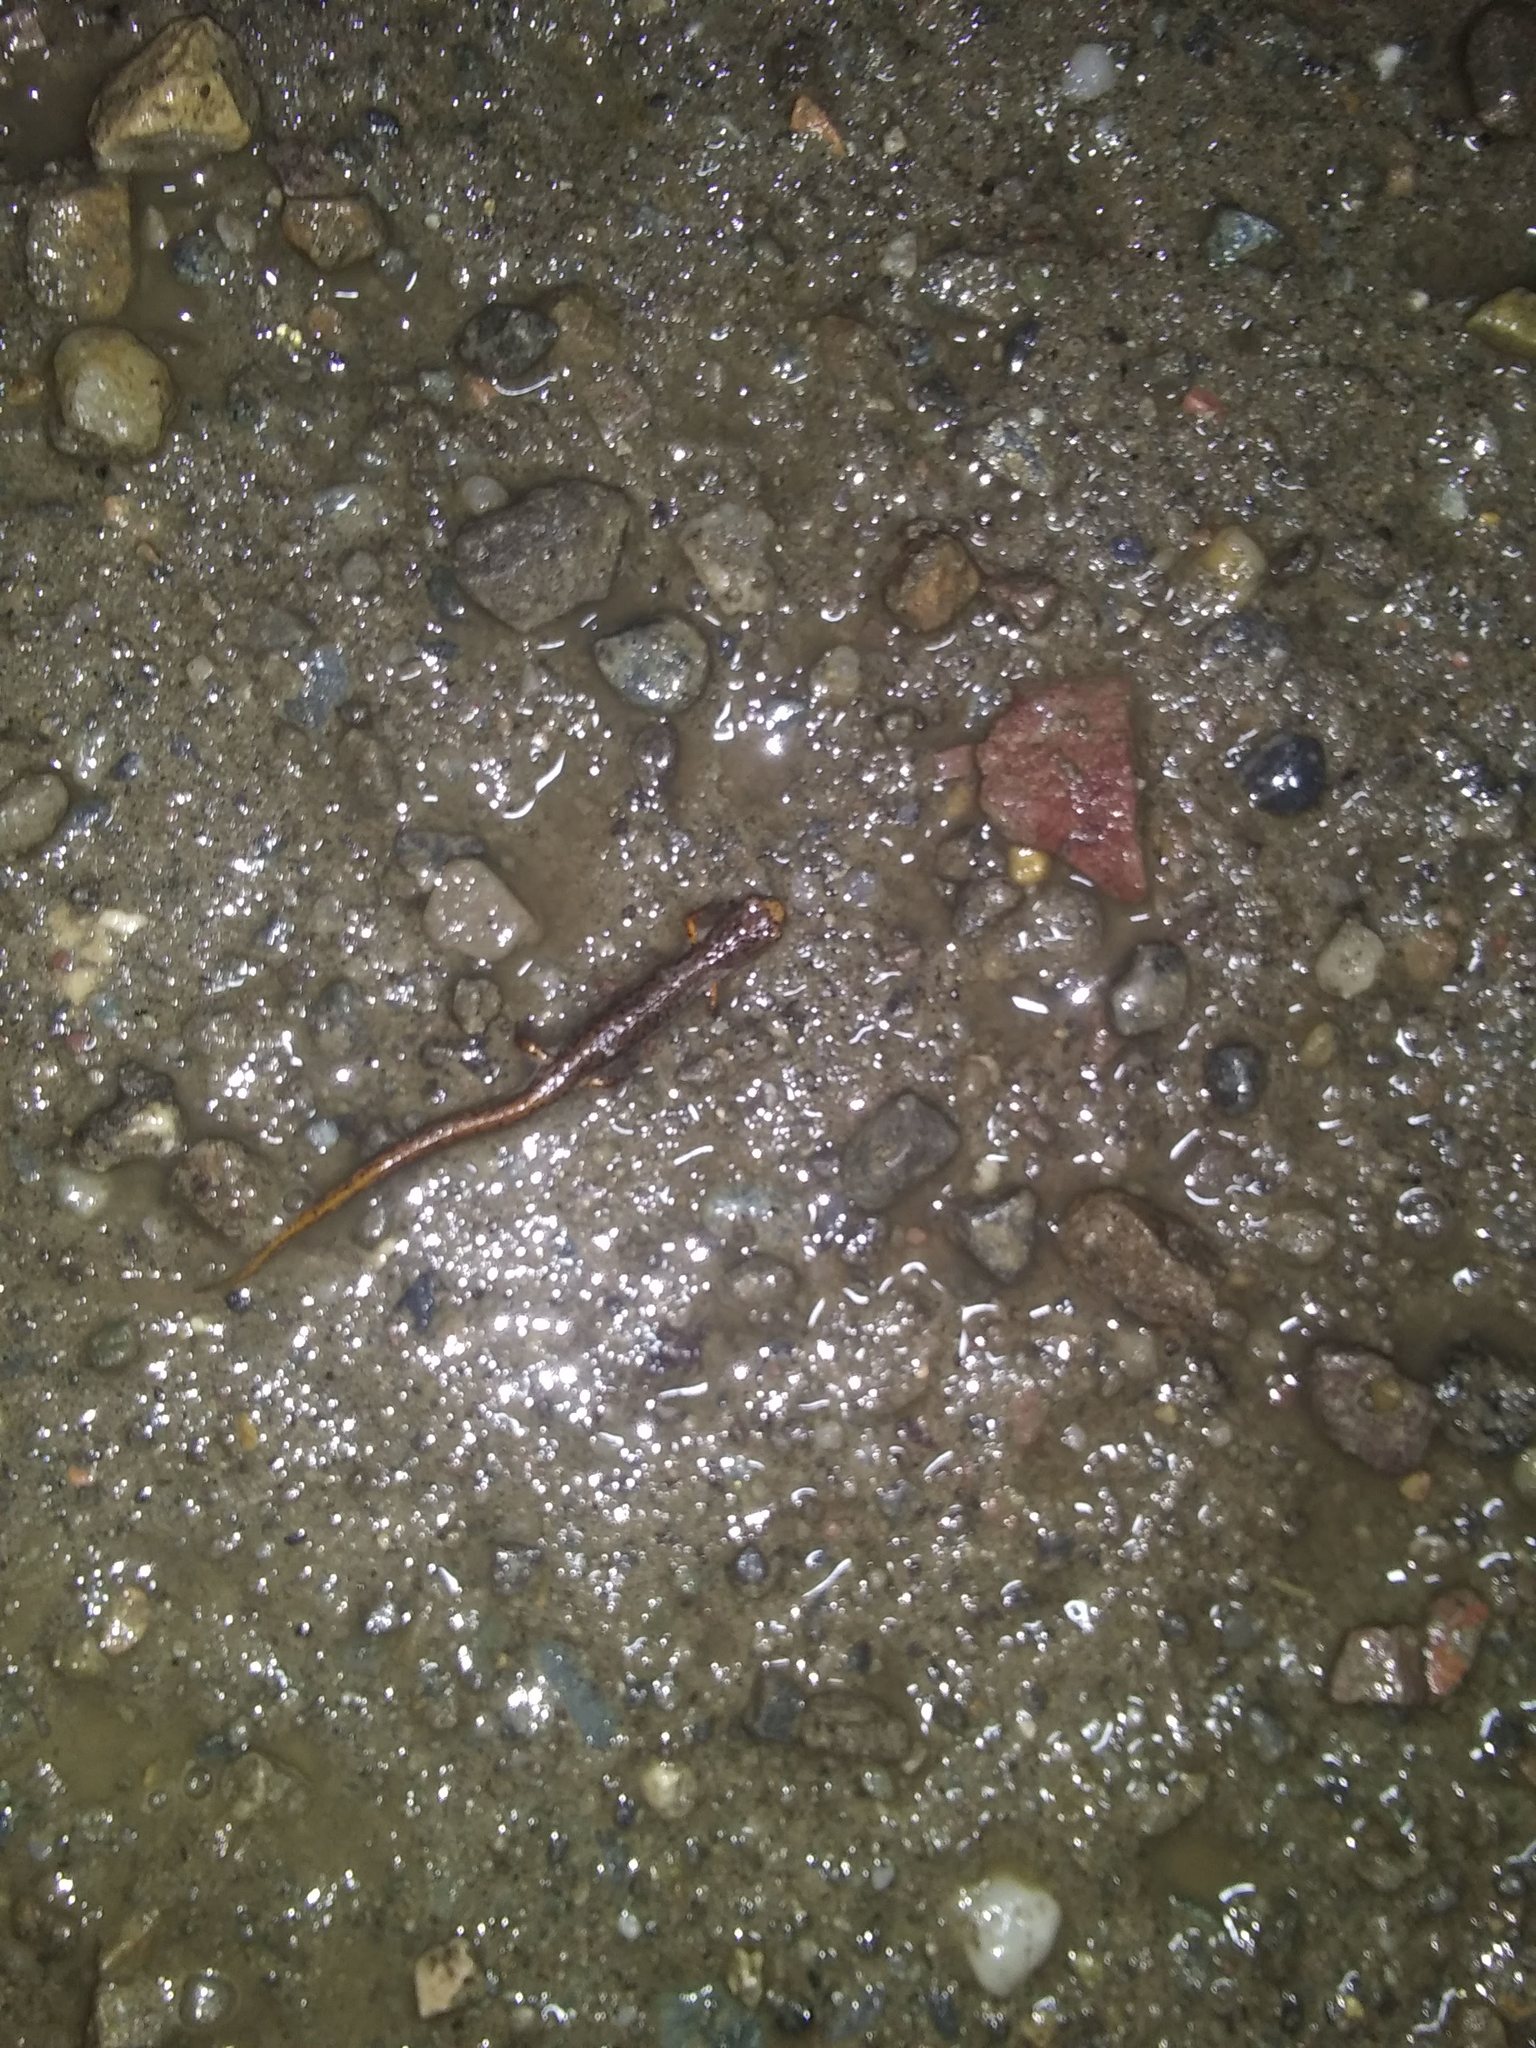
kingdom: Animalia
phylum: Chordata
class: Amphibia
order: Caudata
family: Plethodontidae
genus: Hemidactylium
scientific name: Hemidactylium scutatum
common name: Four-toed salamander
